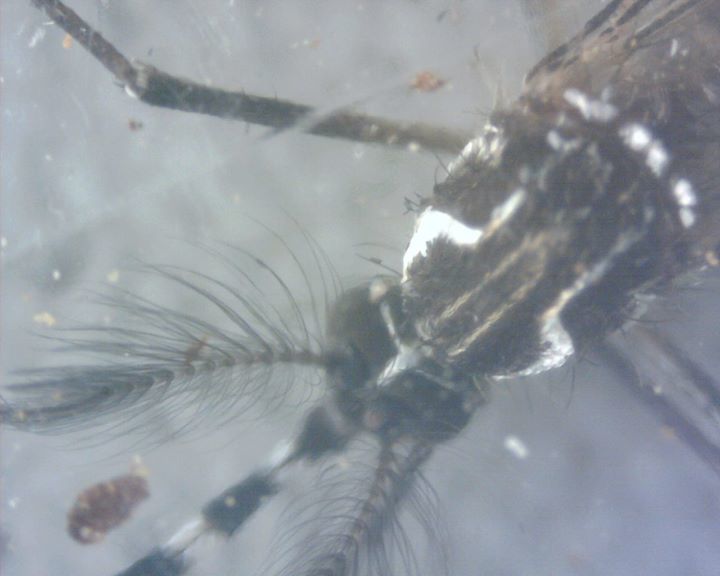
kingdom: Animalia
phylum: Arthropoda
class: Insecta
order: Diptera
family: Culicidae
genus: Aedes
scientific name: Aedes aegypti
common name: Yellow fever mosquito
